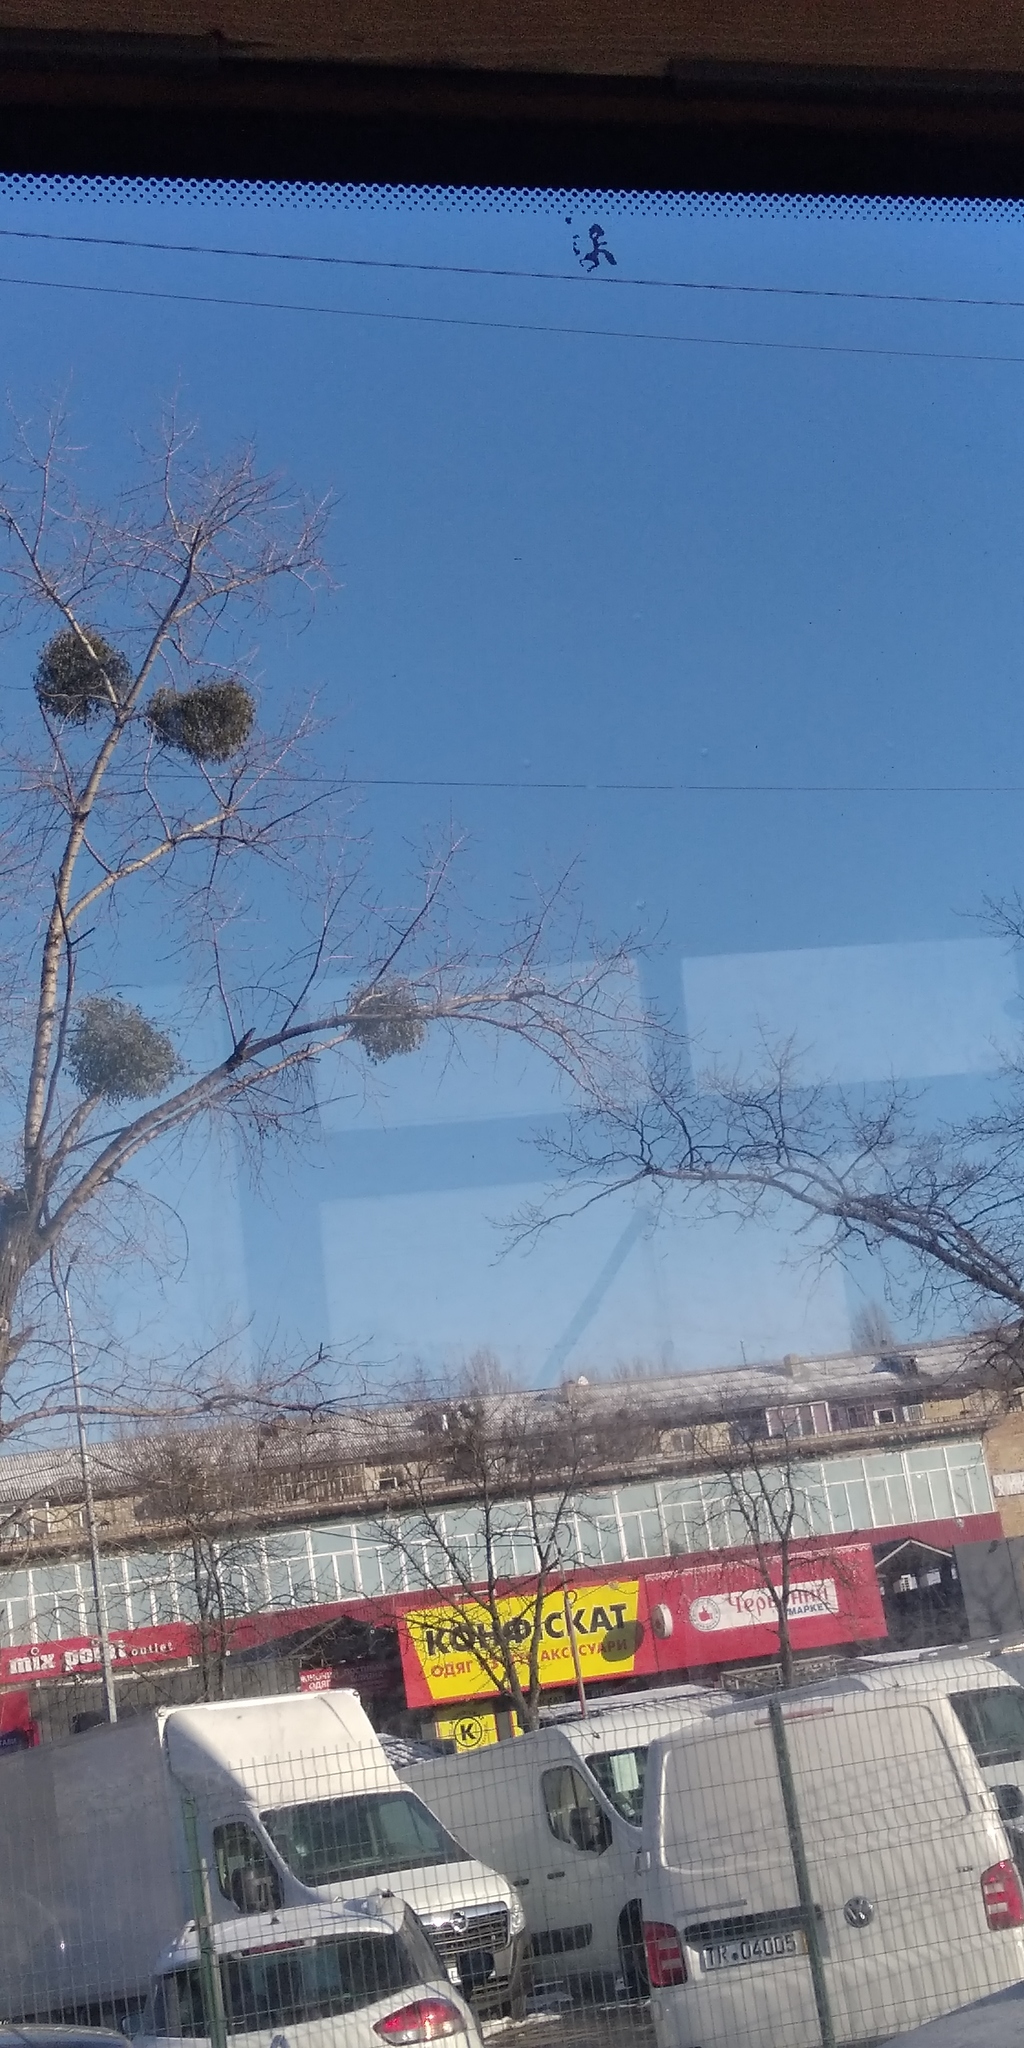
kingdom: Plantae
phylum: Tracheophyta
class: Magnoliopsida
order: Santalales
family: Viscaceae
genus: Viscum
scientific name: Viscum album
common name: Mistletoe
